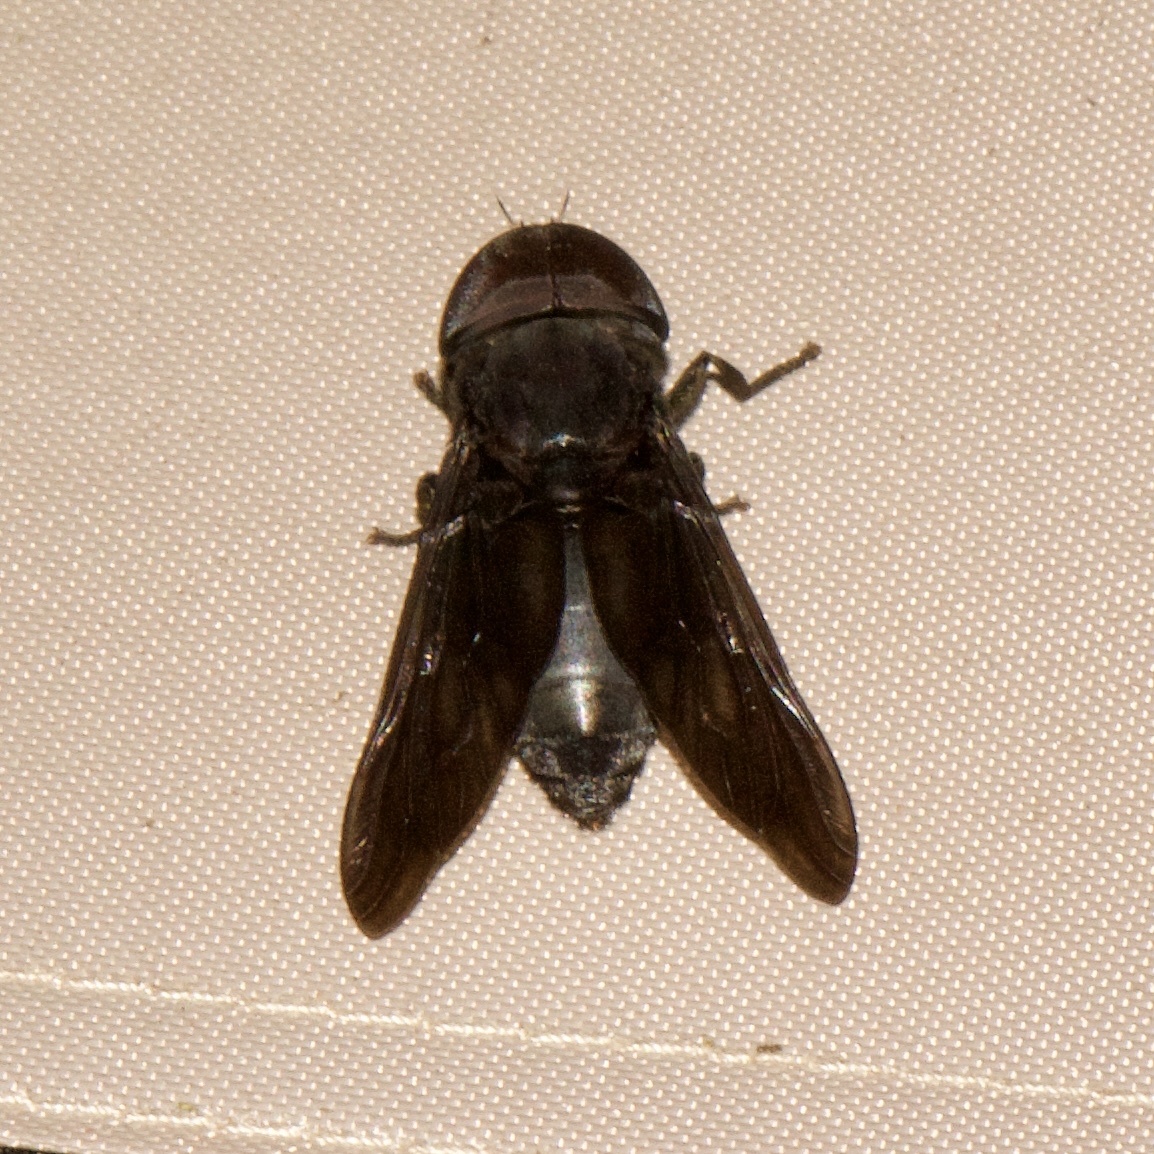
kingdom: Animalia
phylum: Arthropoda
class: Insecta
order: Diptera
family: Tabanidae
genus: Tabanus
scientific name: Tabanus atratus
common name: Black horse fly
